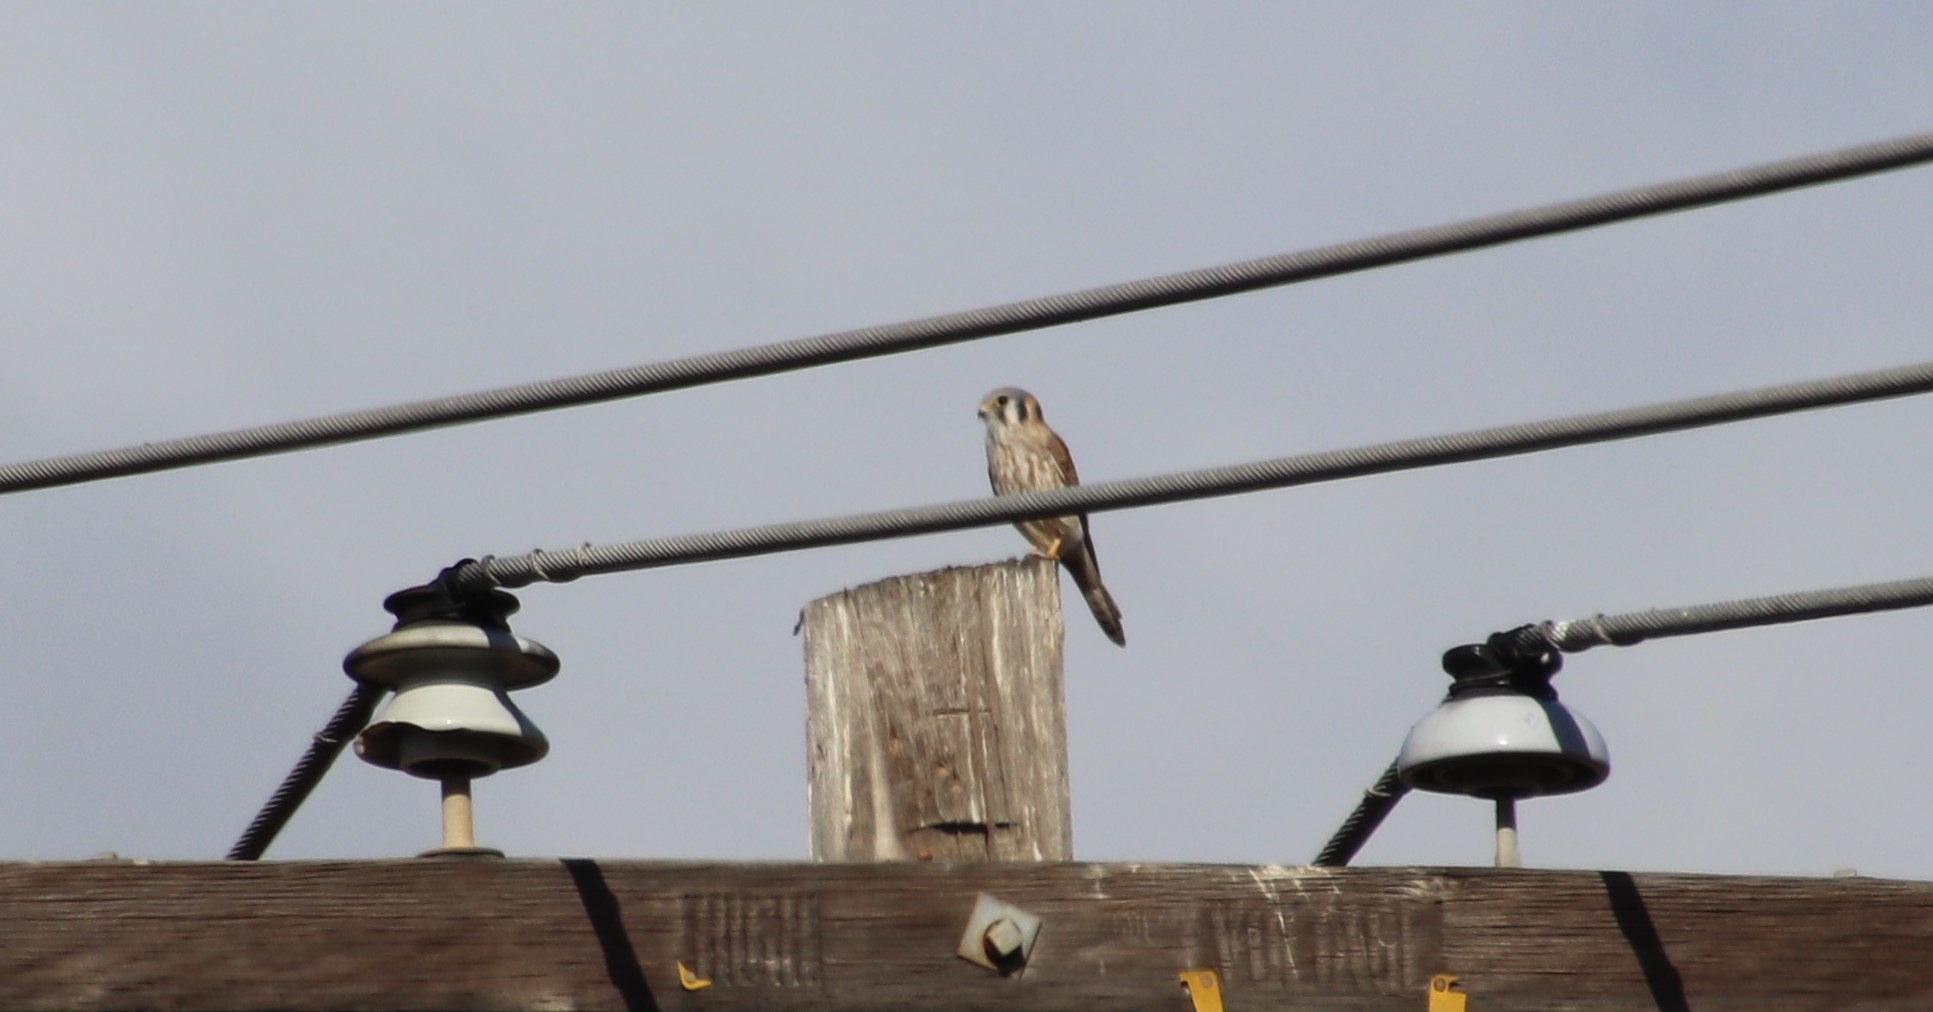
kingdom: Animalia
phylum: Chordata
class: Aves
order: Falconiformes
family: Falconidae
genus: Falco
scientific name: Falco sparverius
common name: American kestrel
